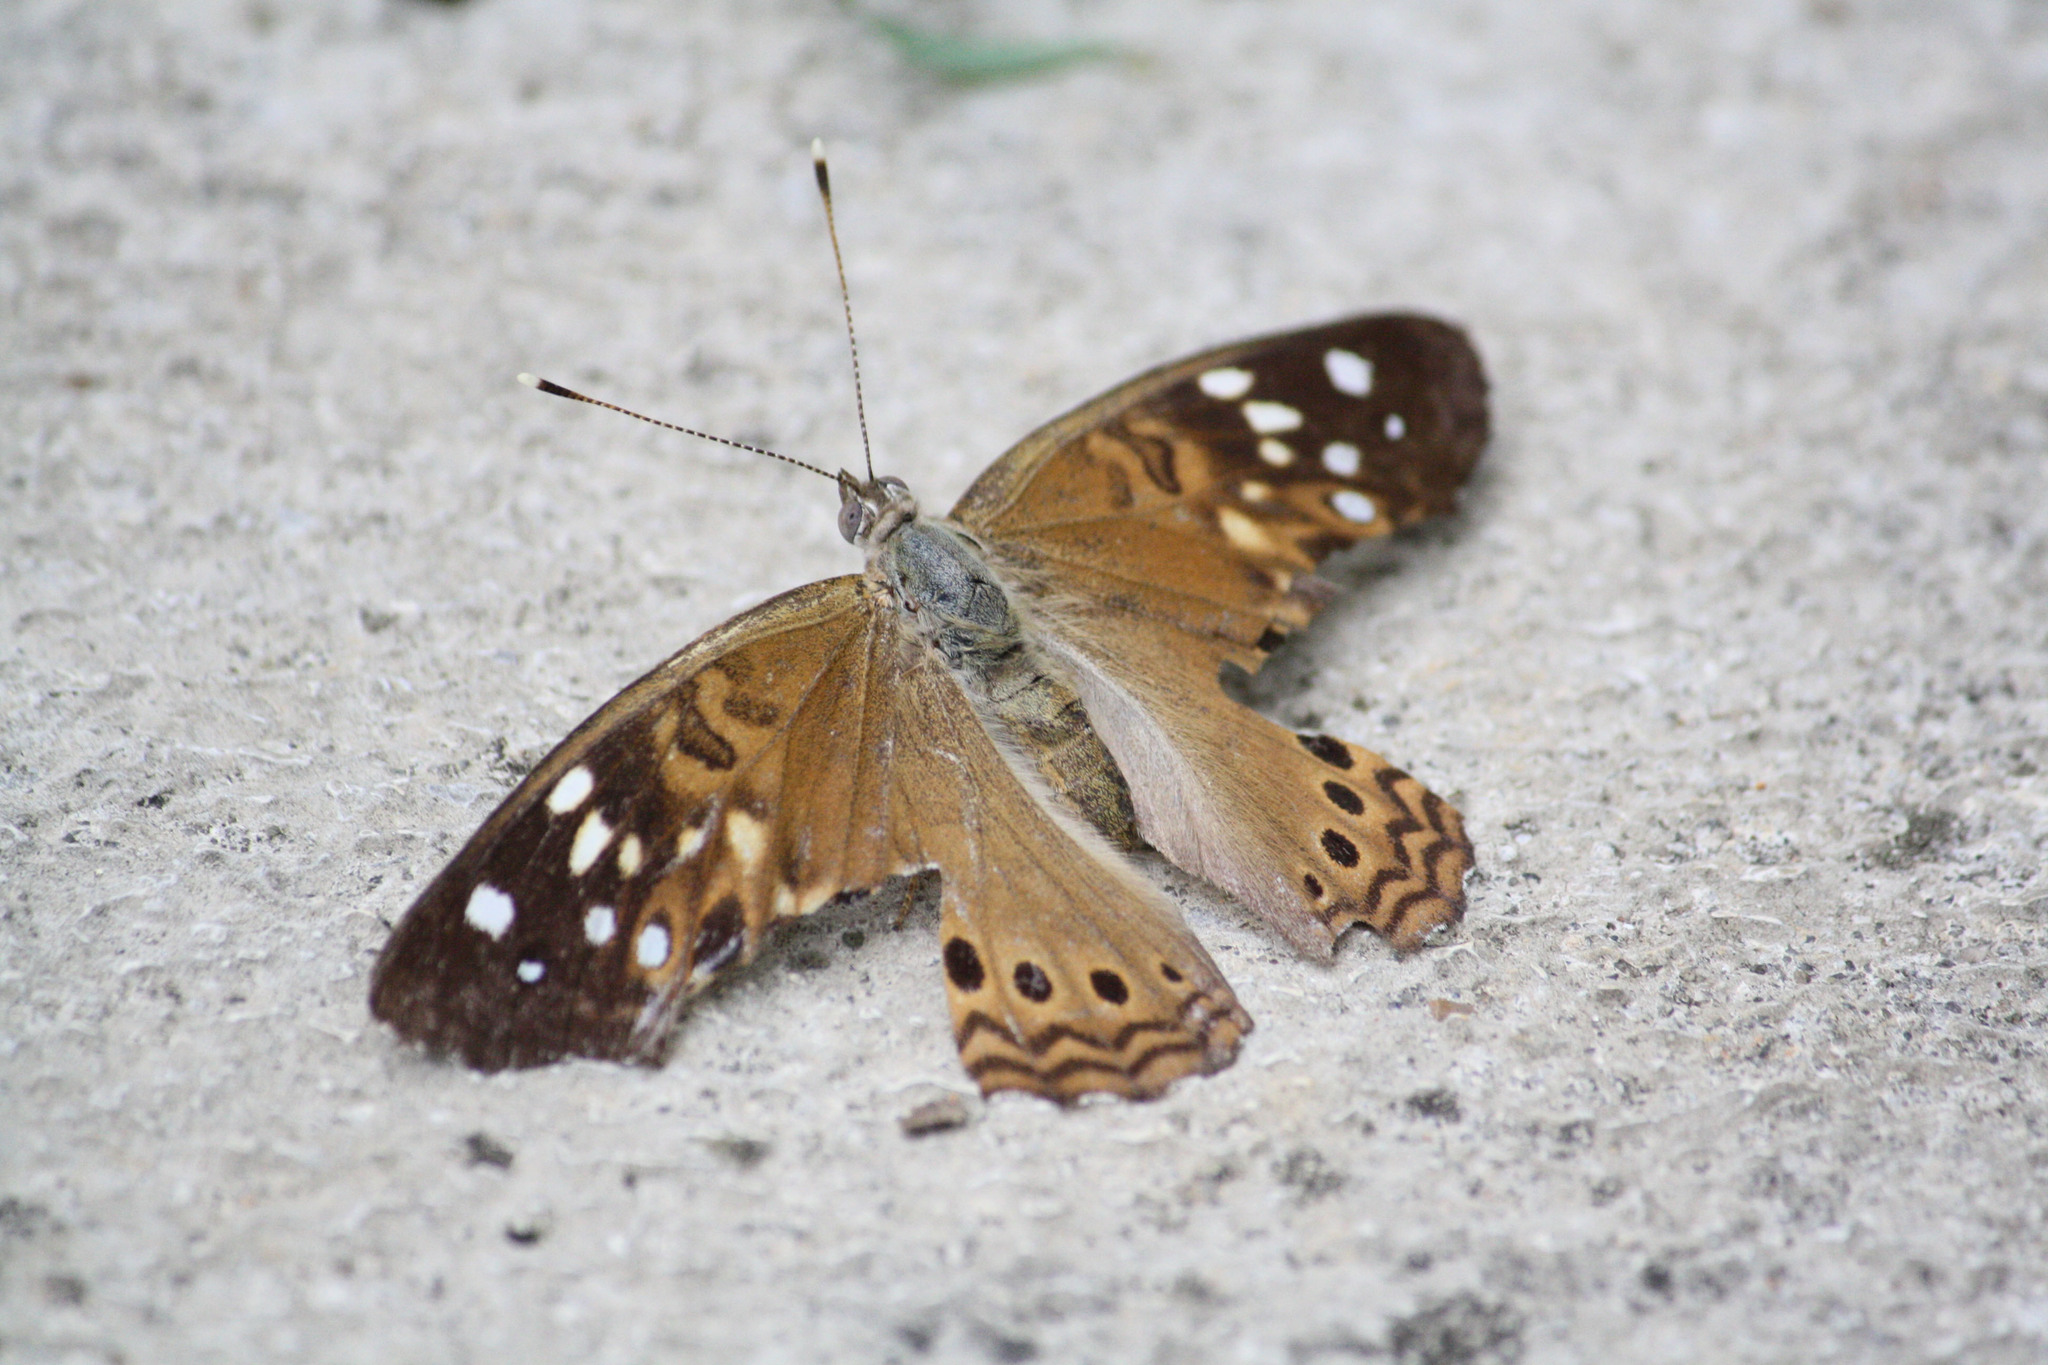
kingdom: Animalia
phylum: Arthropoda
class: Insecta
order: Lepidoptera
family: Nymphalidae
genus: Asterocampa
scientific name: Asterocampa celtis
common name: Hackberry emperor
